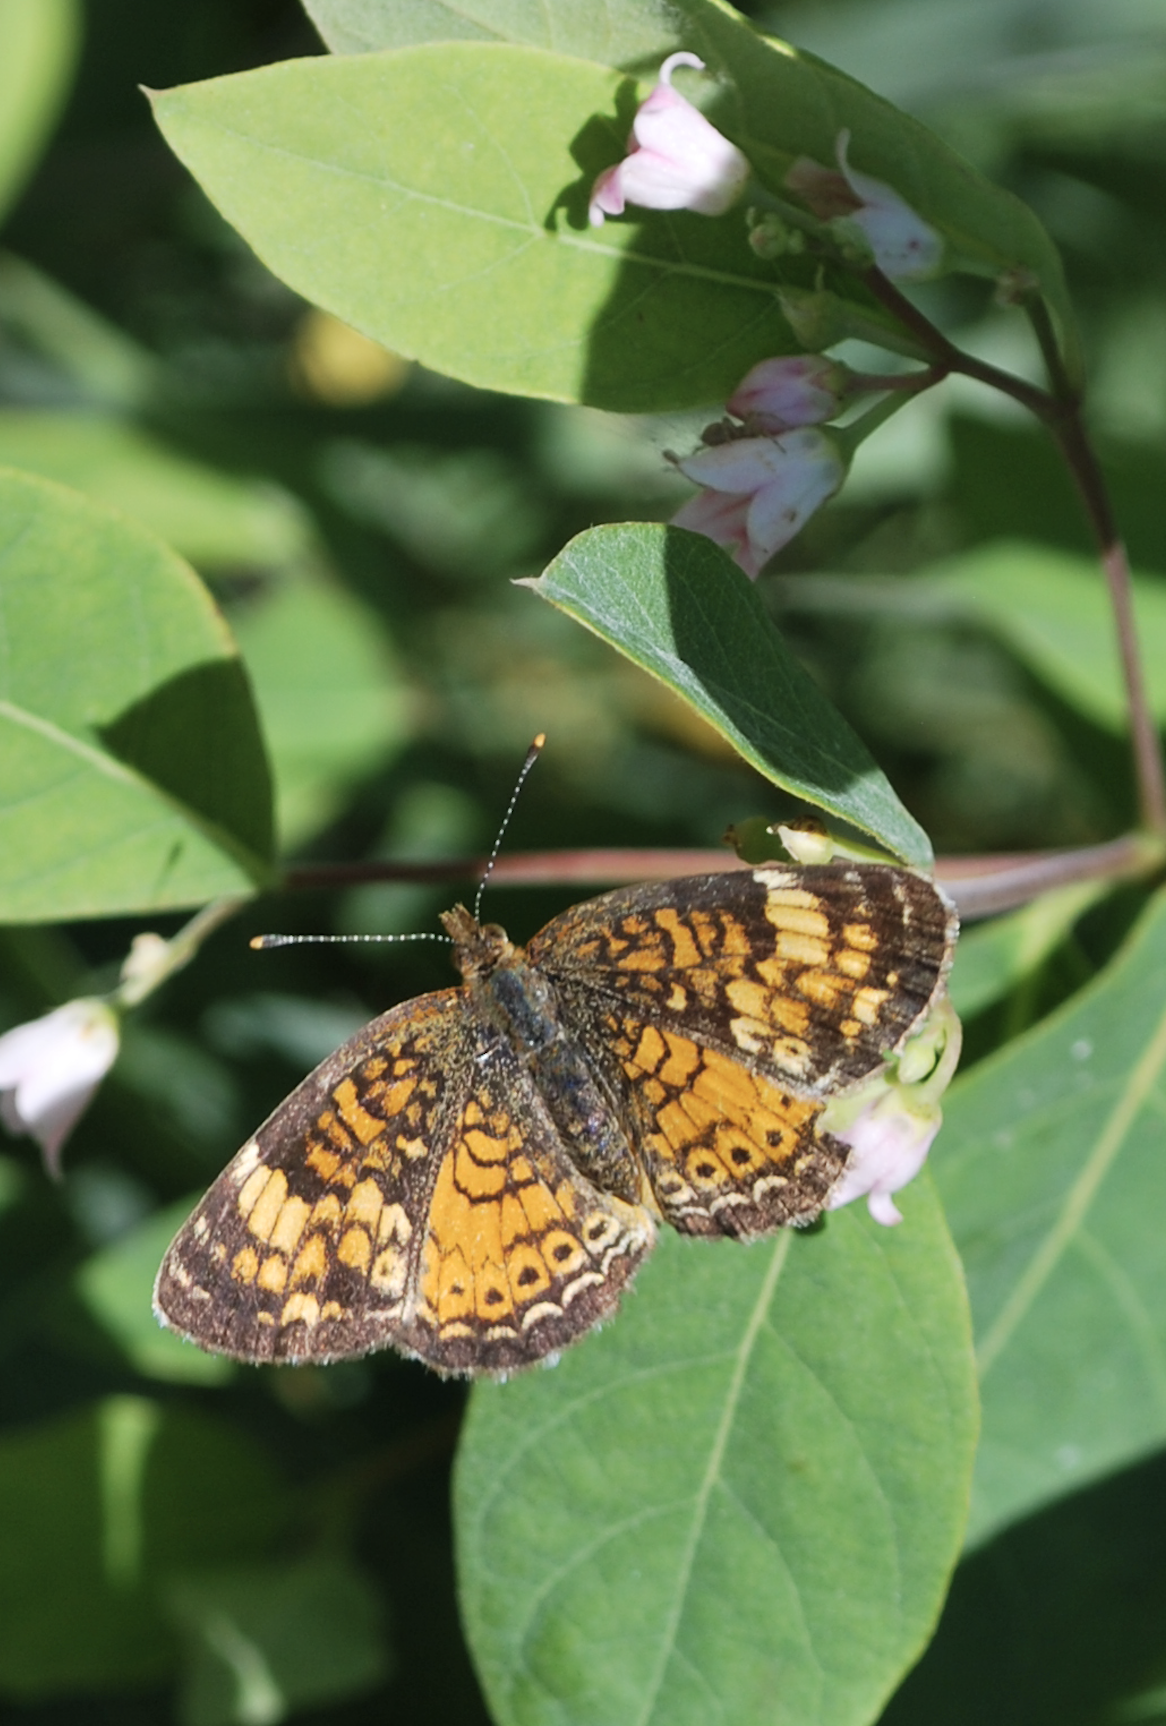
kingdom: Animalia
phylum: Arthropoda
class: Insecta
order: Lepidoptera
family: Nymphalidae
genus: Phyciodes
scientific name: Phyciodes tharos
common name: Pearl crescent
